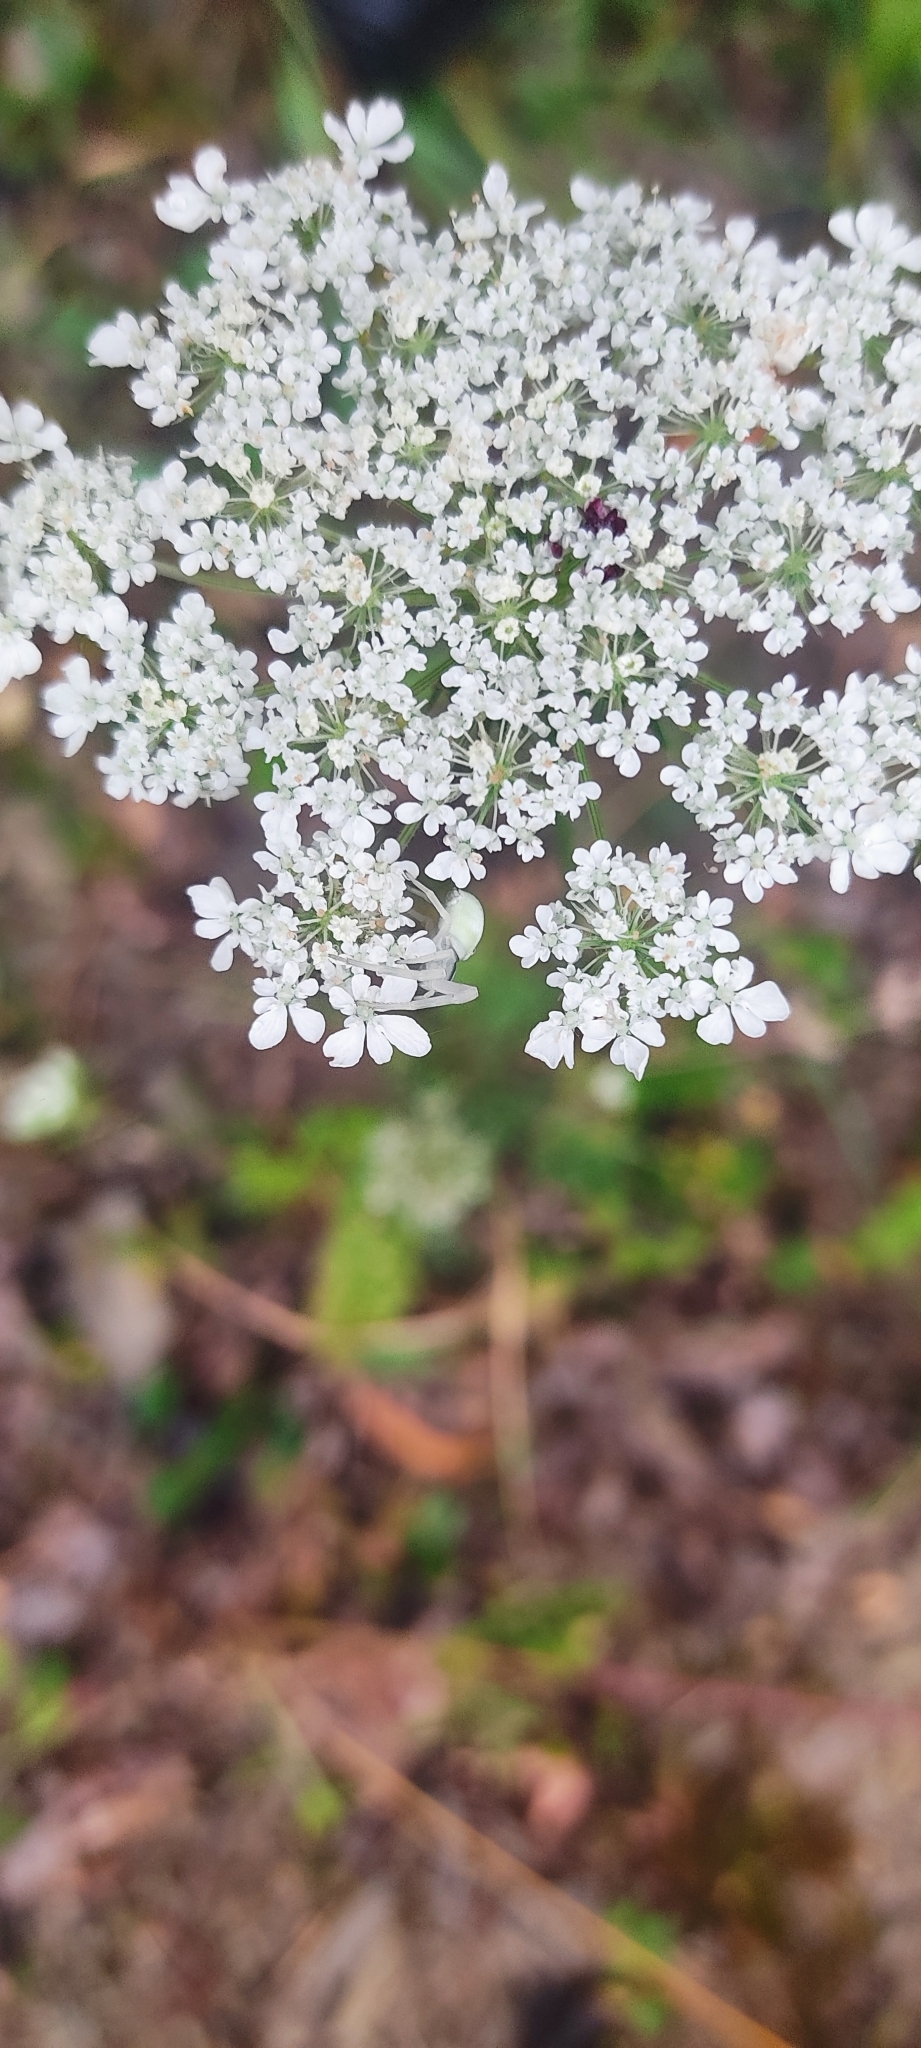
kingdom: Animalia
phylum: Arthropoda
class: Arachnida
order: Araneae
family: Thomisidae
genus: Misumena
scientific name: Misumena vatia
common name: Goldenrod crab spider
